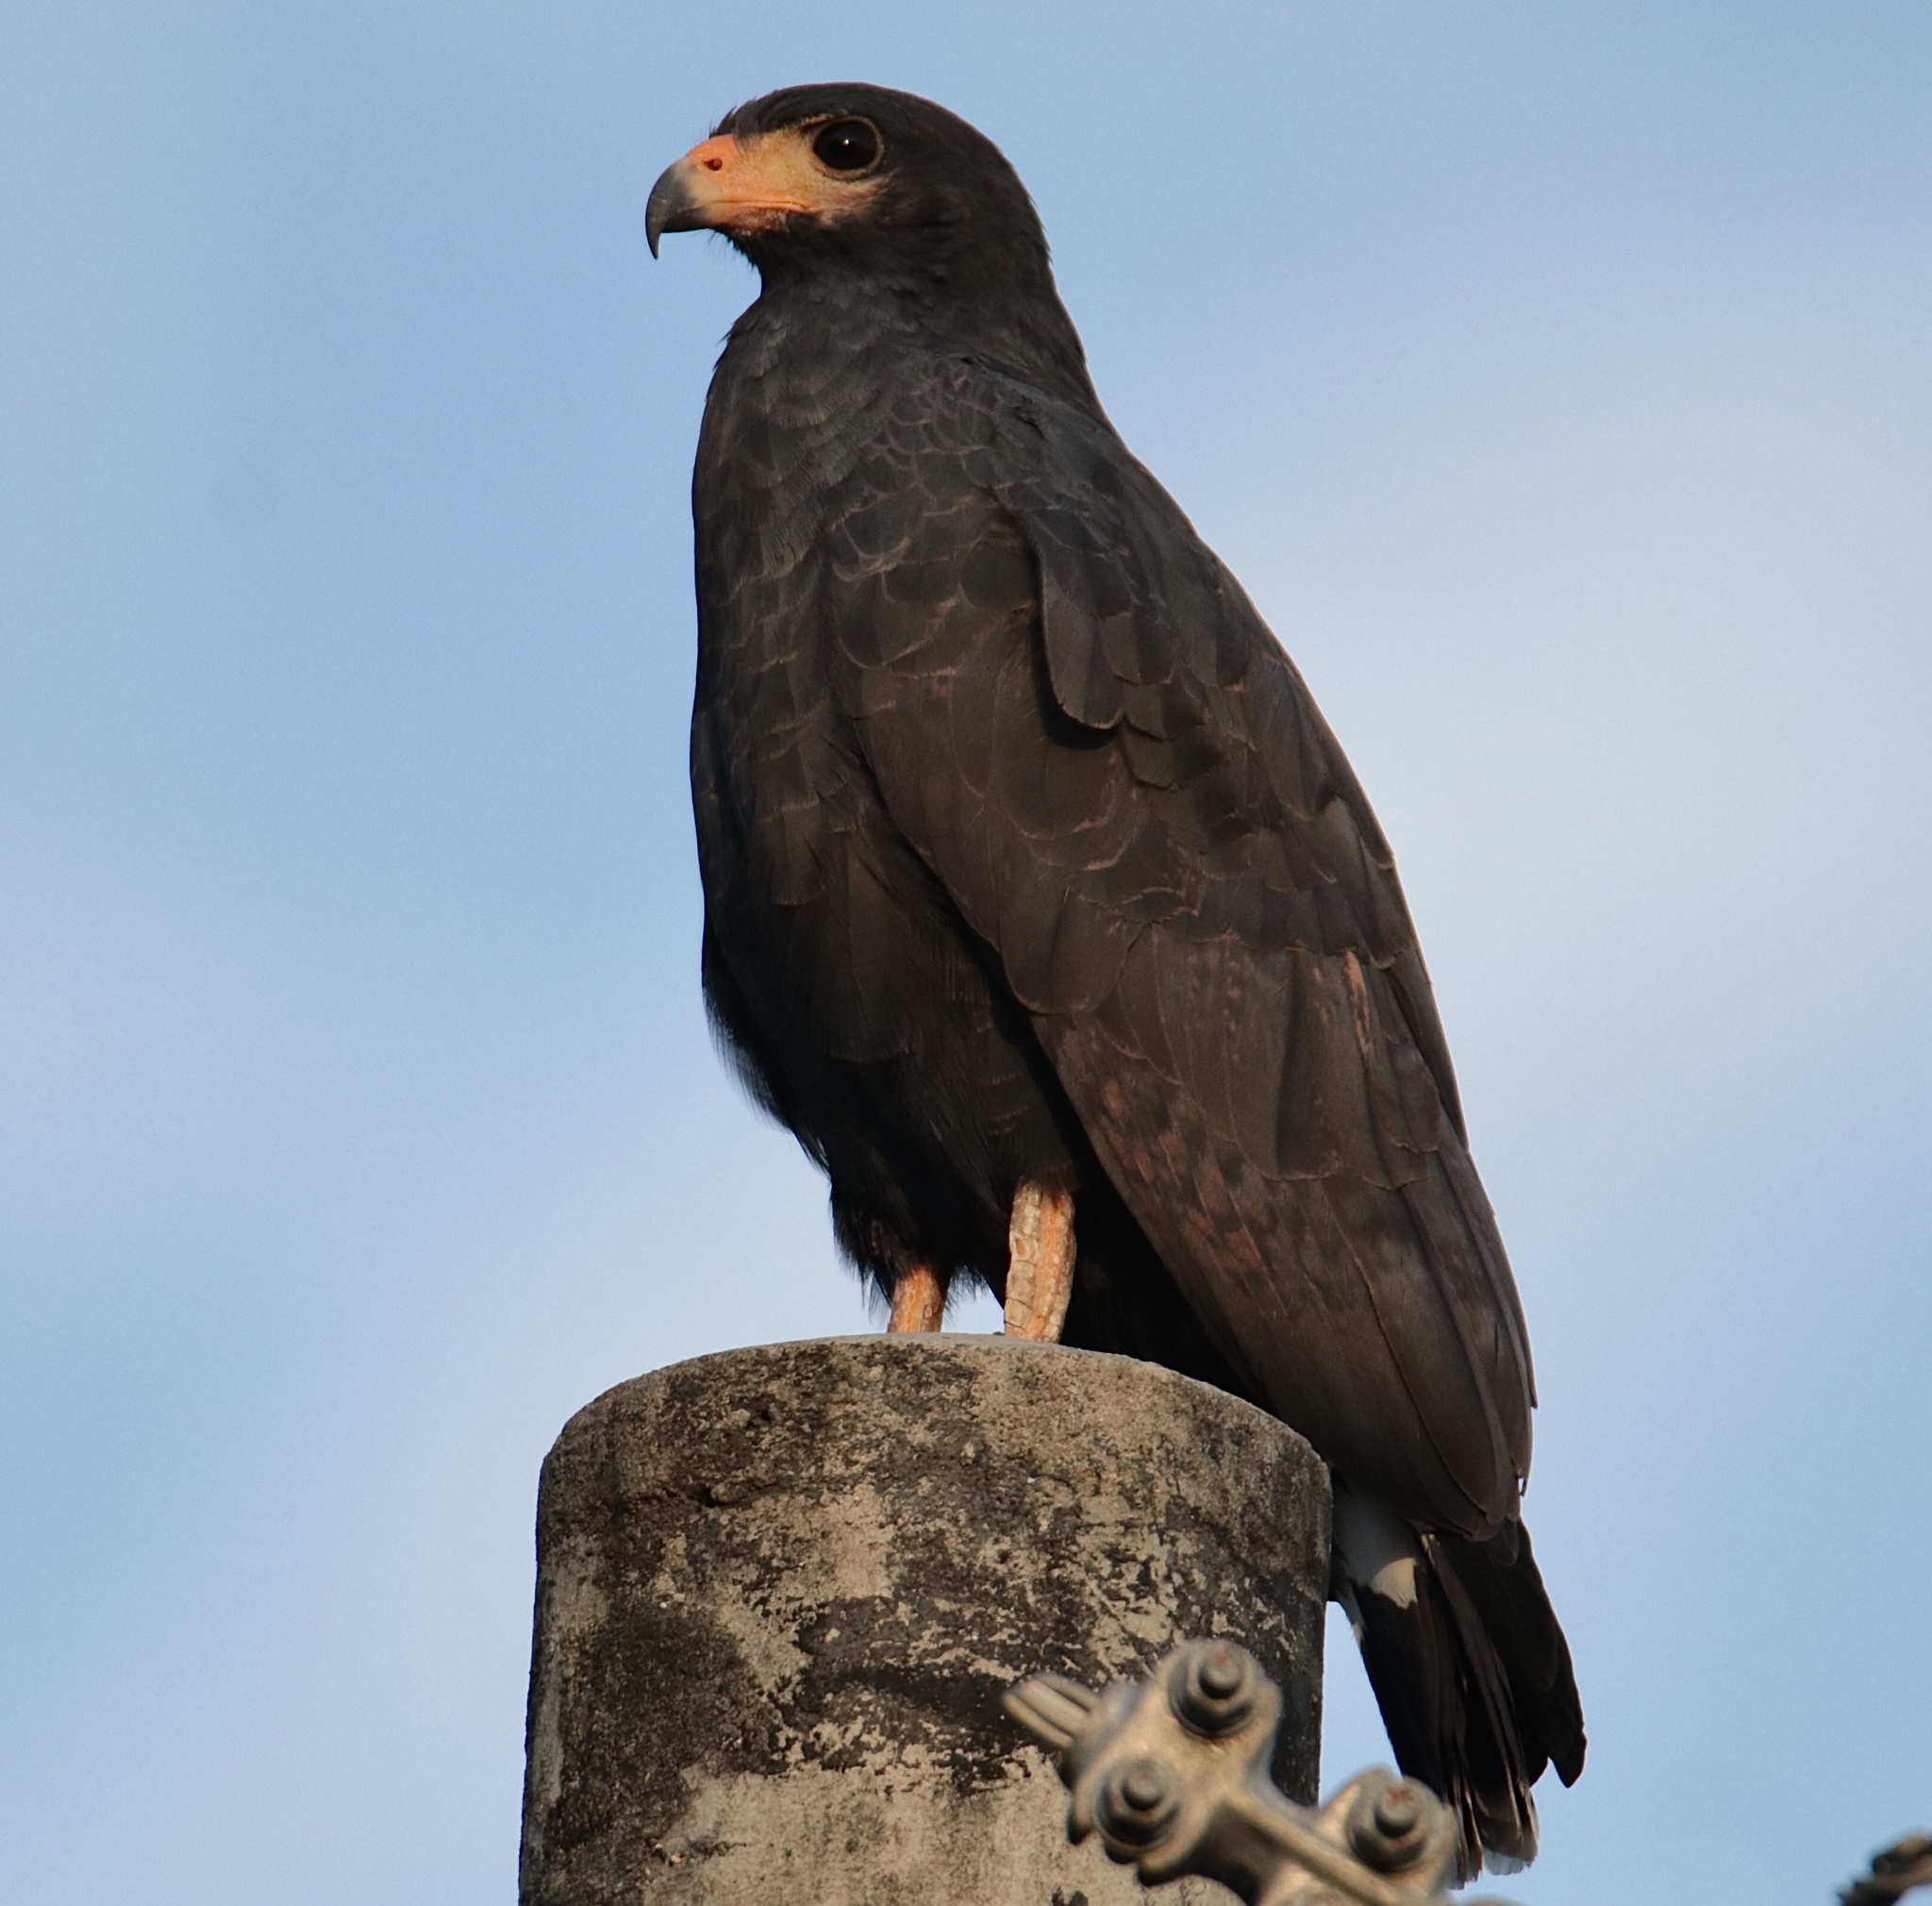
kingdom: Animalia
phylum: Chordata
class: Aves
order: Accipitriformes
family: Accipitridae
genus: Buteogallus
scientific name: Buteogallus anthracinus
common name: Common black hawk
